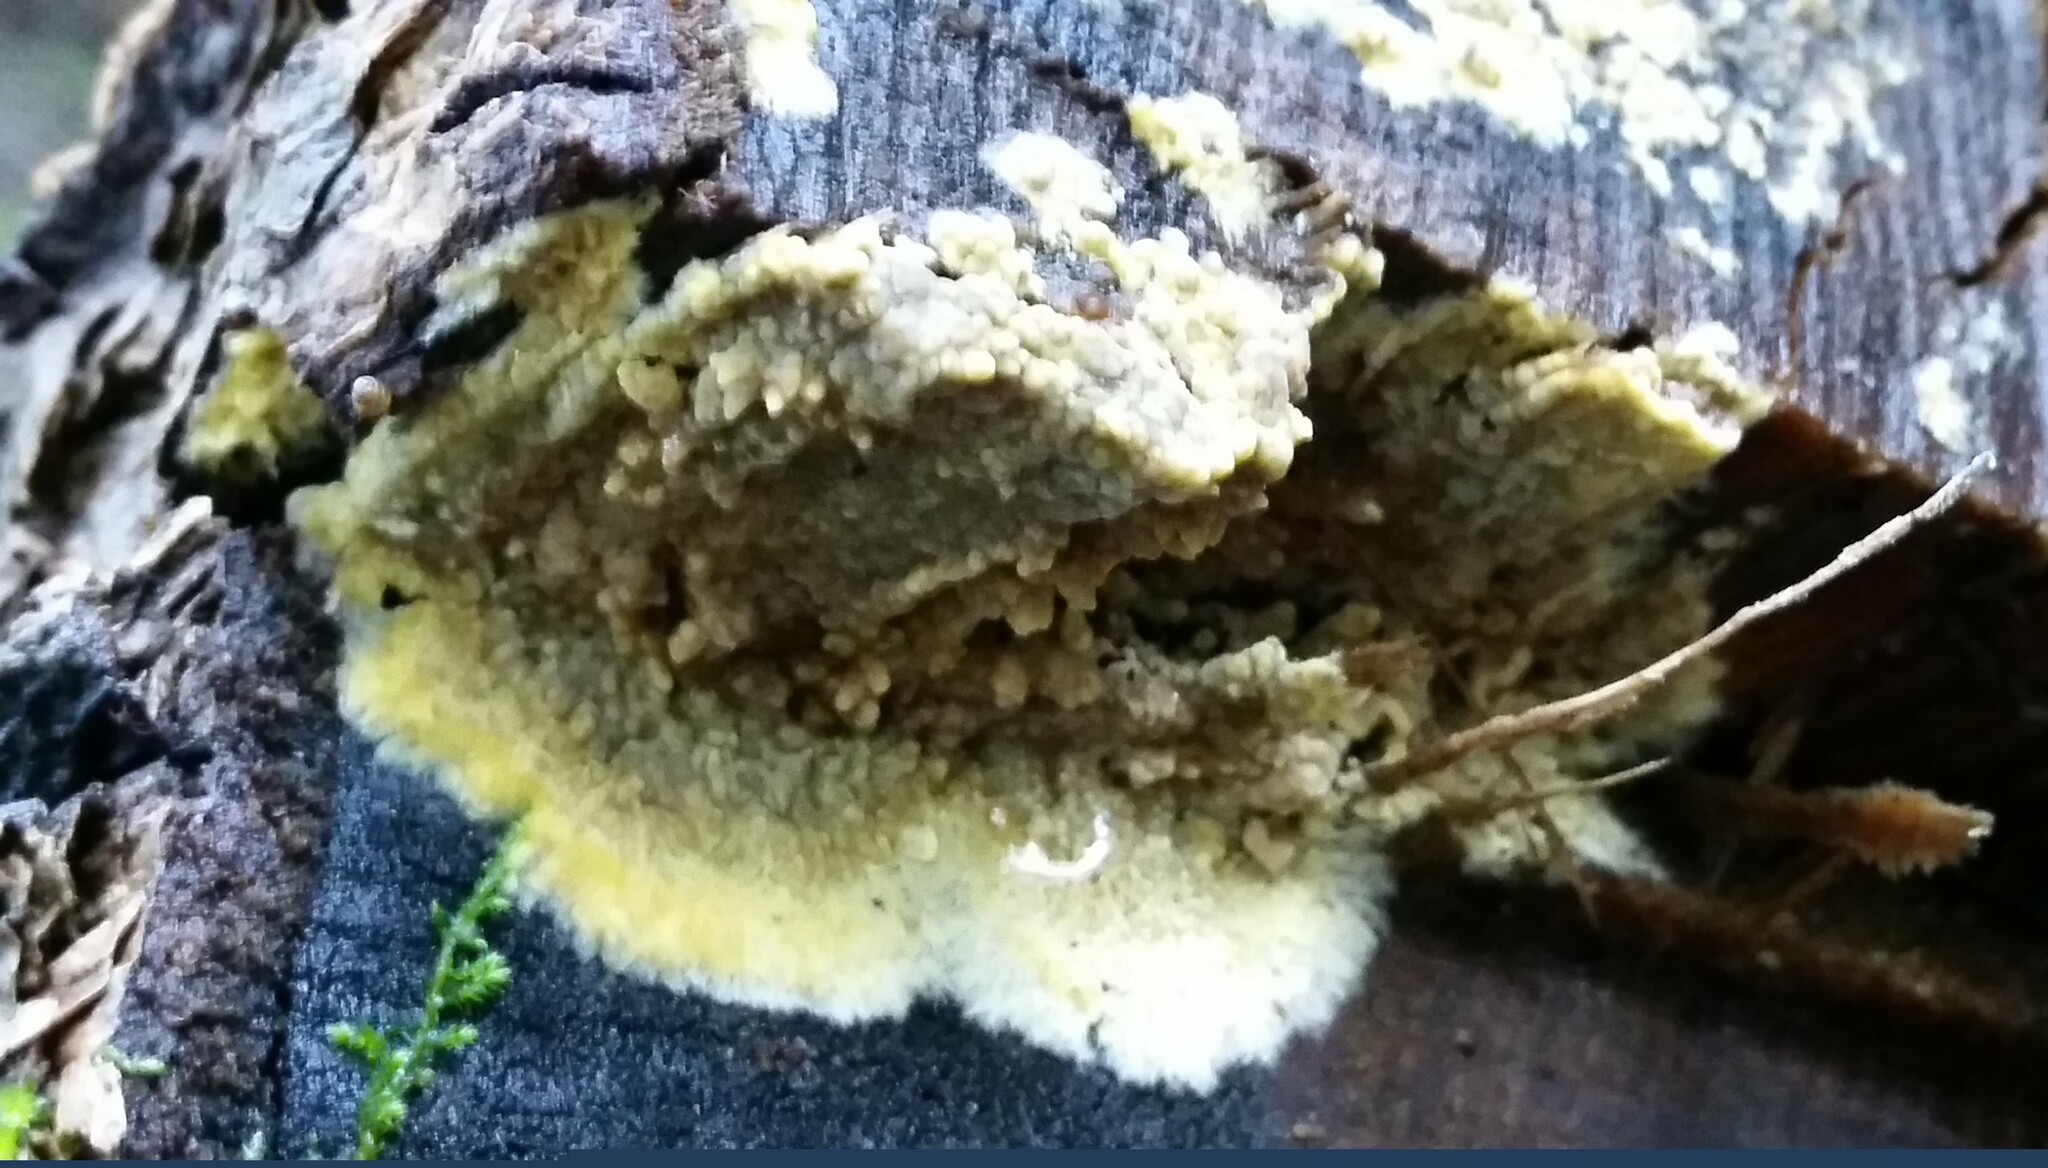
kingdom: Fungi
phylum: Basidiomycota
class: Agaricomycetes
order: Boletales
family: Coniophoraceae
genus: Coniophora
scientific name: Coniophora puteana
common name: Cellar fungus
